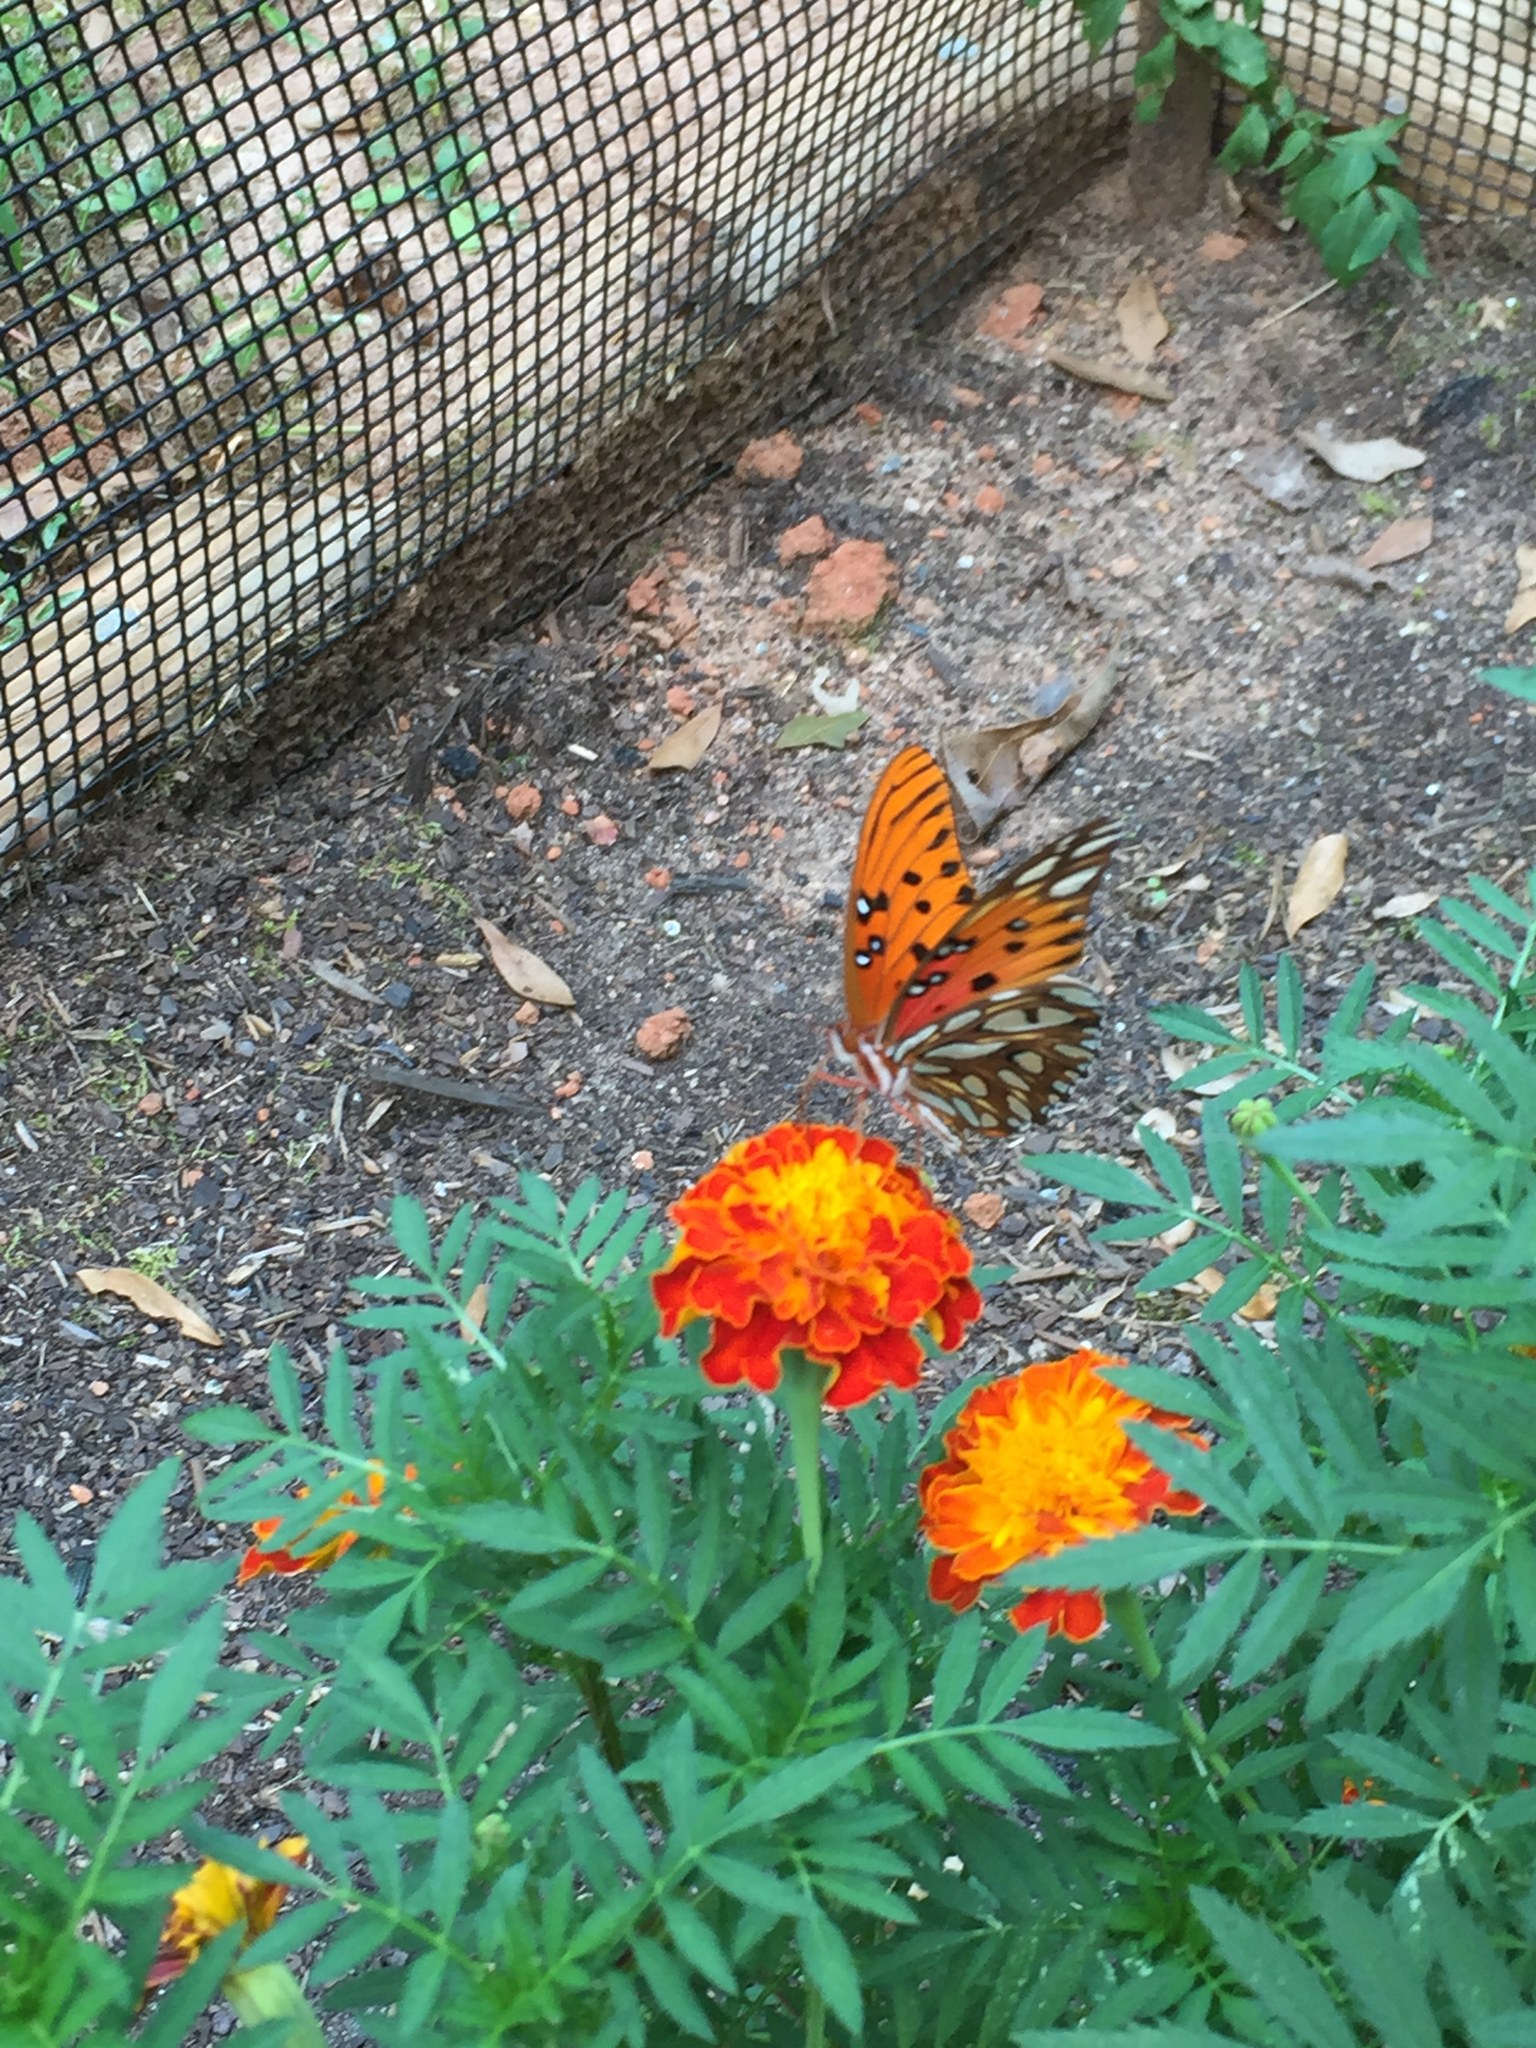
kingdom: Animalia
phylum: Arthropoda
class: Insecta
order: Lepidoptera
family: Nymphalidae
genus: Dione
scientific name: Dione vanillae
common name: Gulf fritillary
